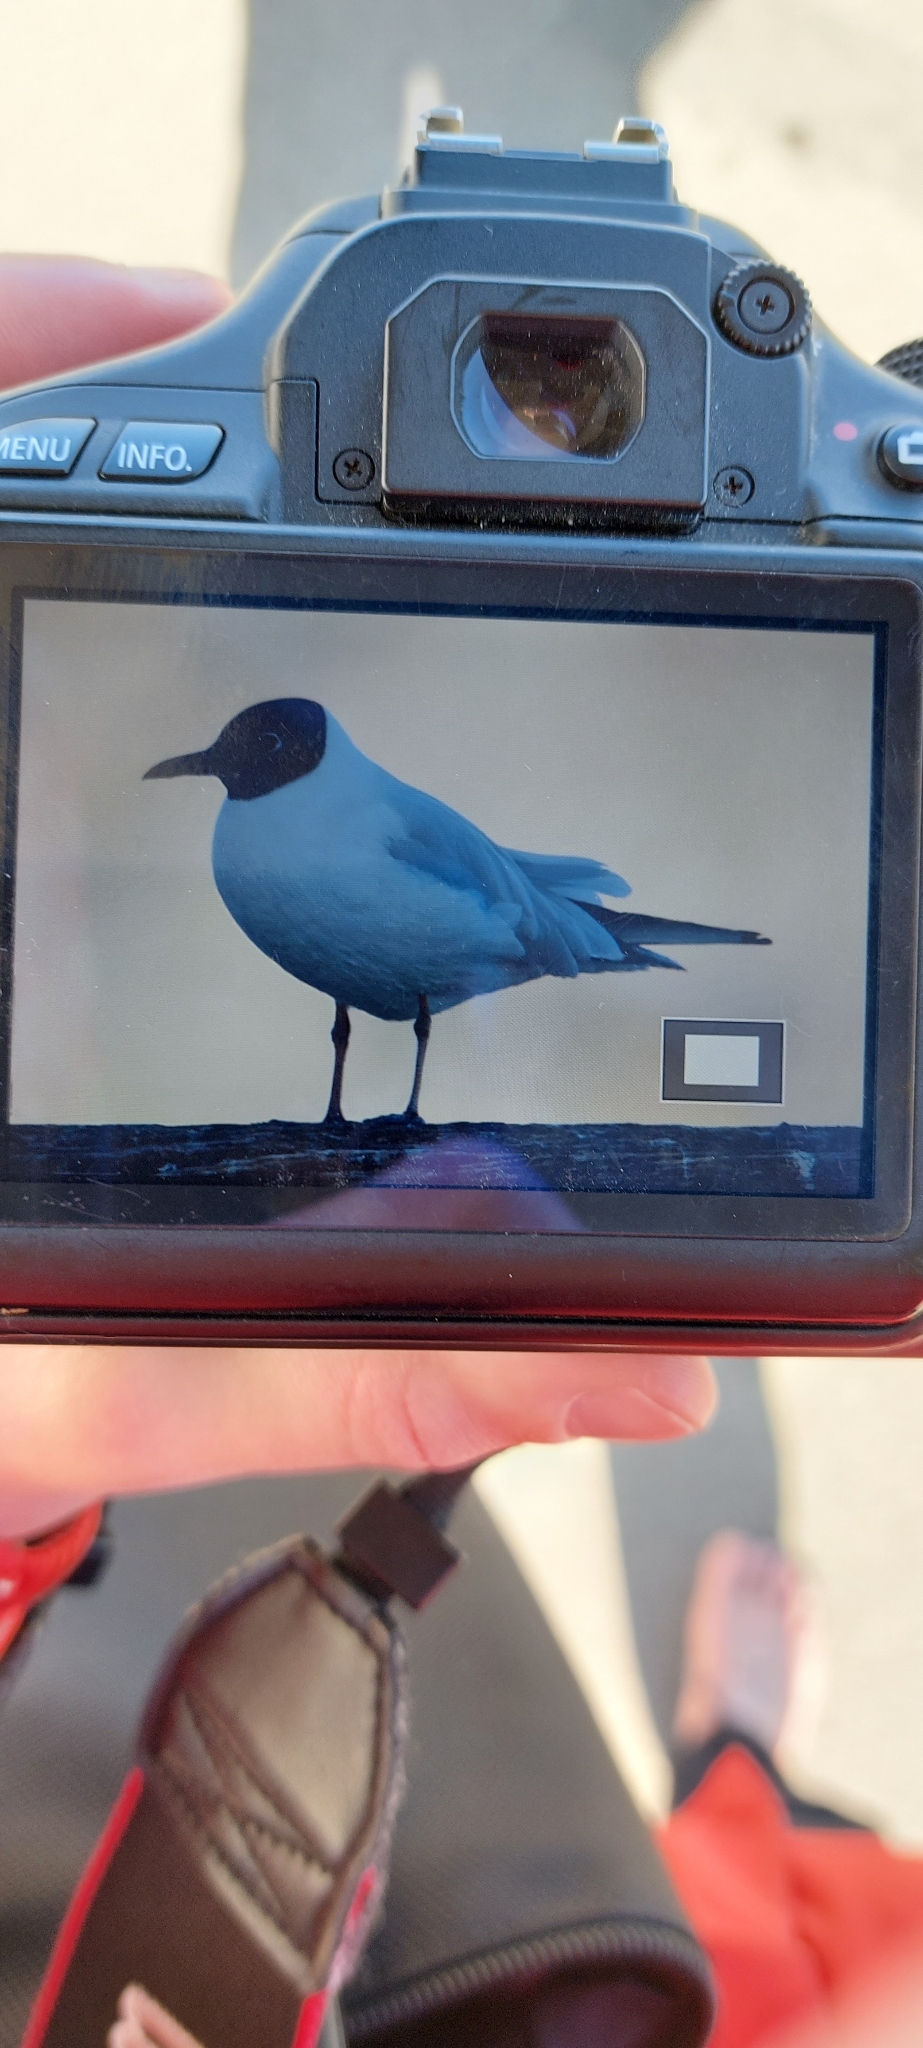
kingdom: Animalia
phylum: Chordata
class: Aves
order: Charadriiformes
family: Laridae
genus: Chroicocephalus
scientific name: Chroicocephalus ridibundus
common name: Black-headed gull
